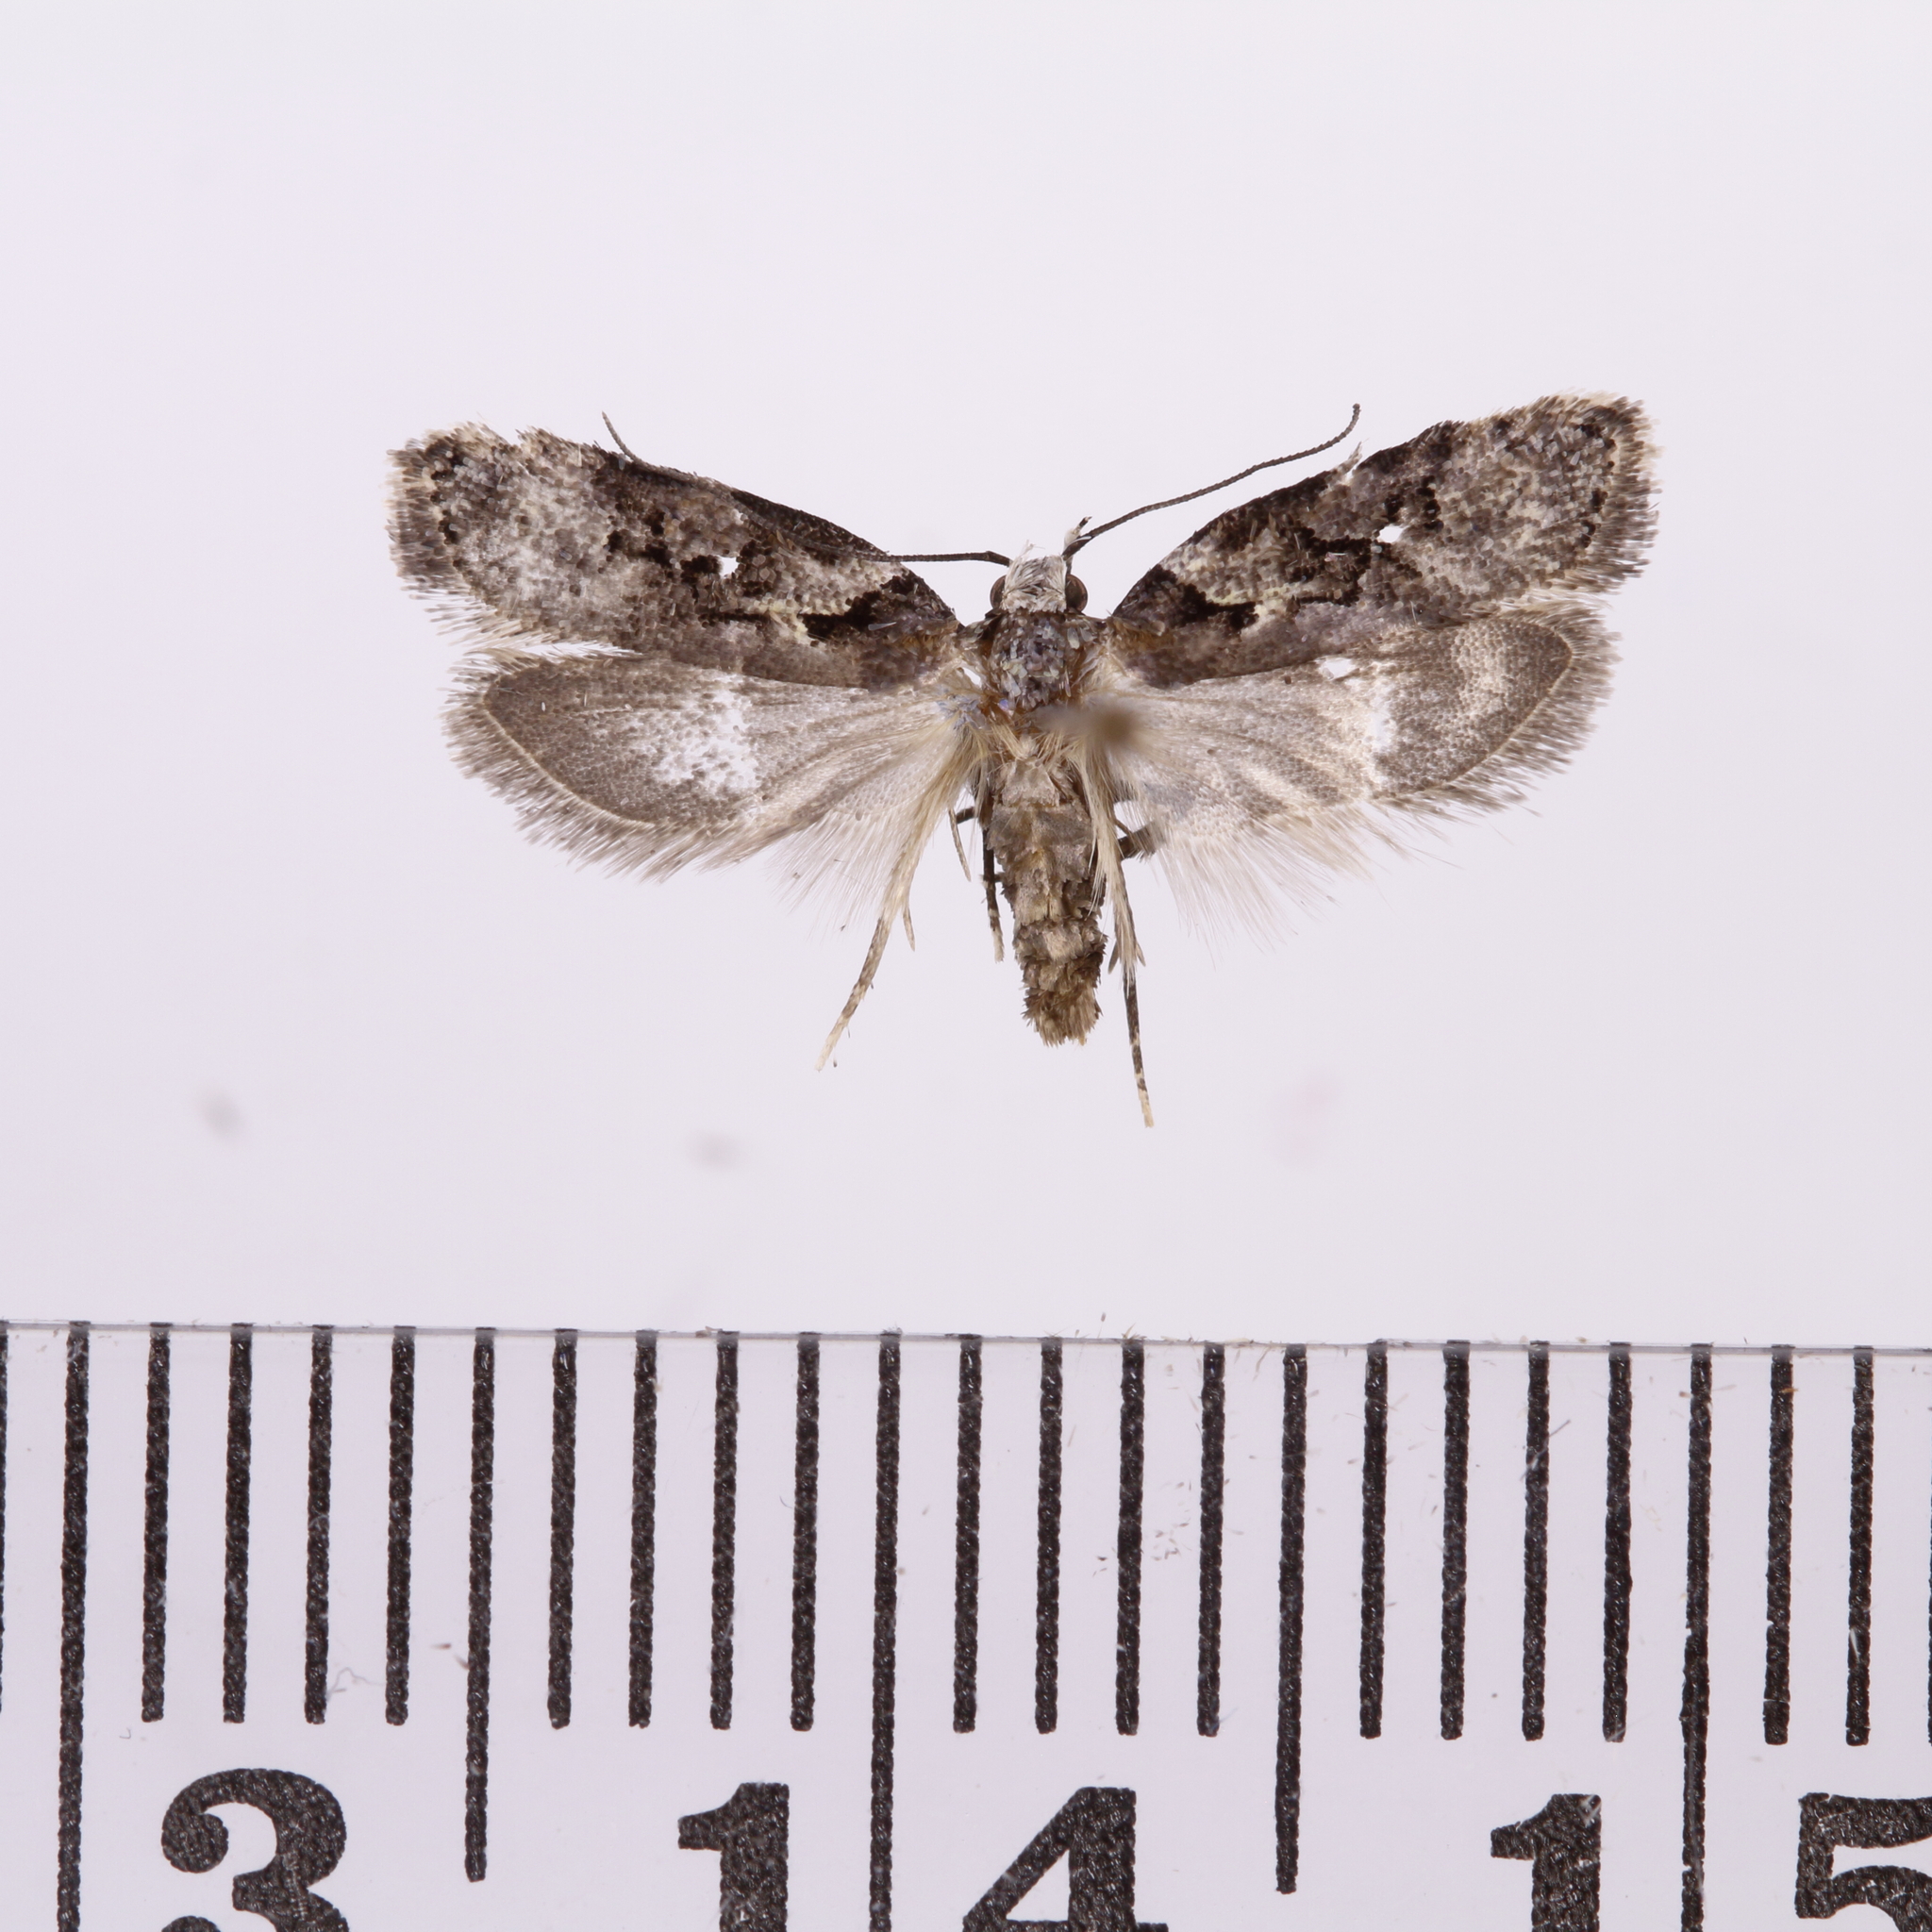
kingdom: Animalia
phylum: Arthropoda
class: Insecta
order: Lepidoptera
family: Oecophoridae
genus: Izatha
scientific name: Izatha epiphanes
